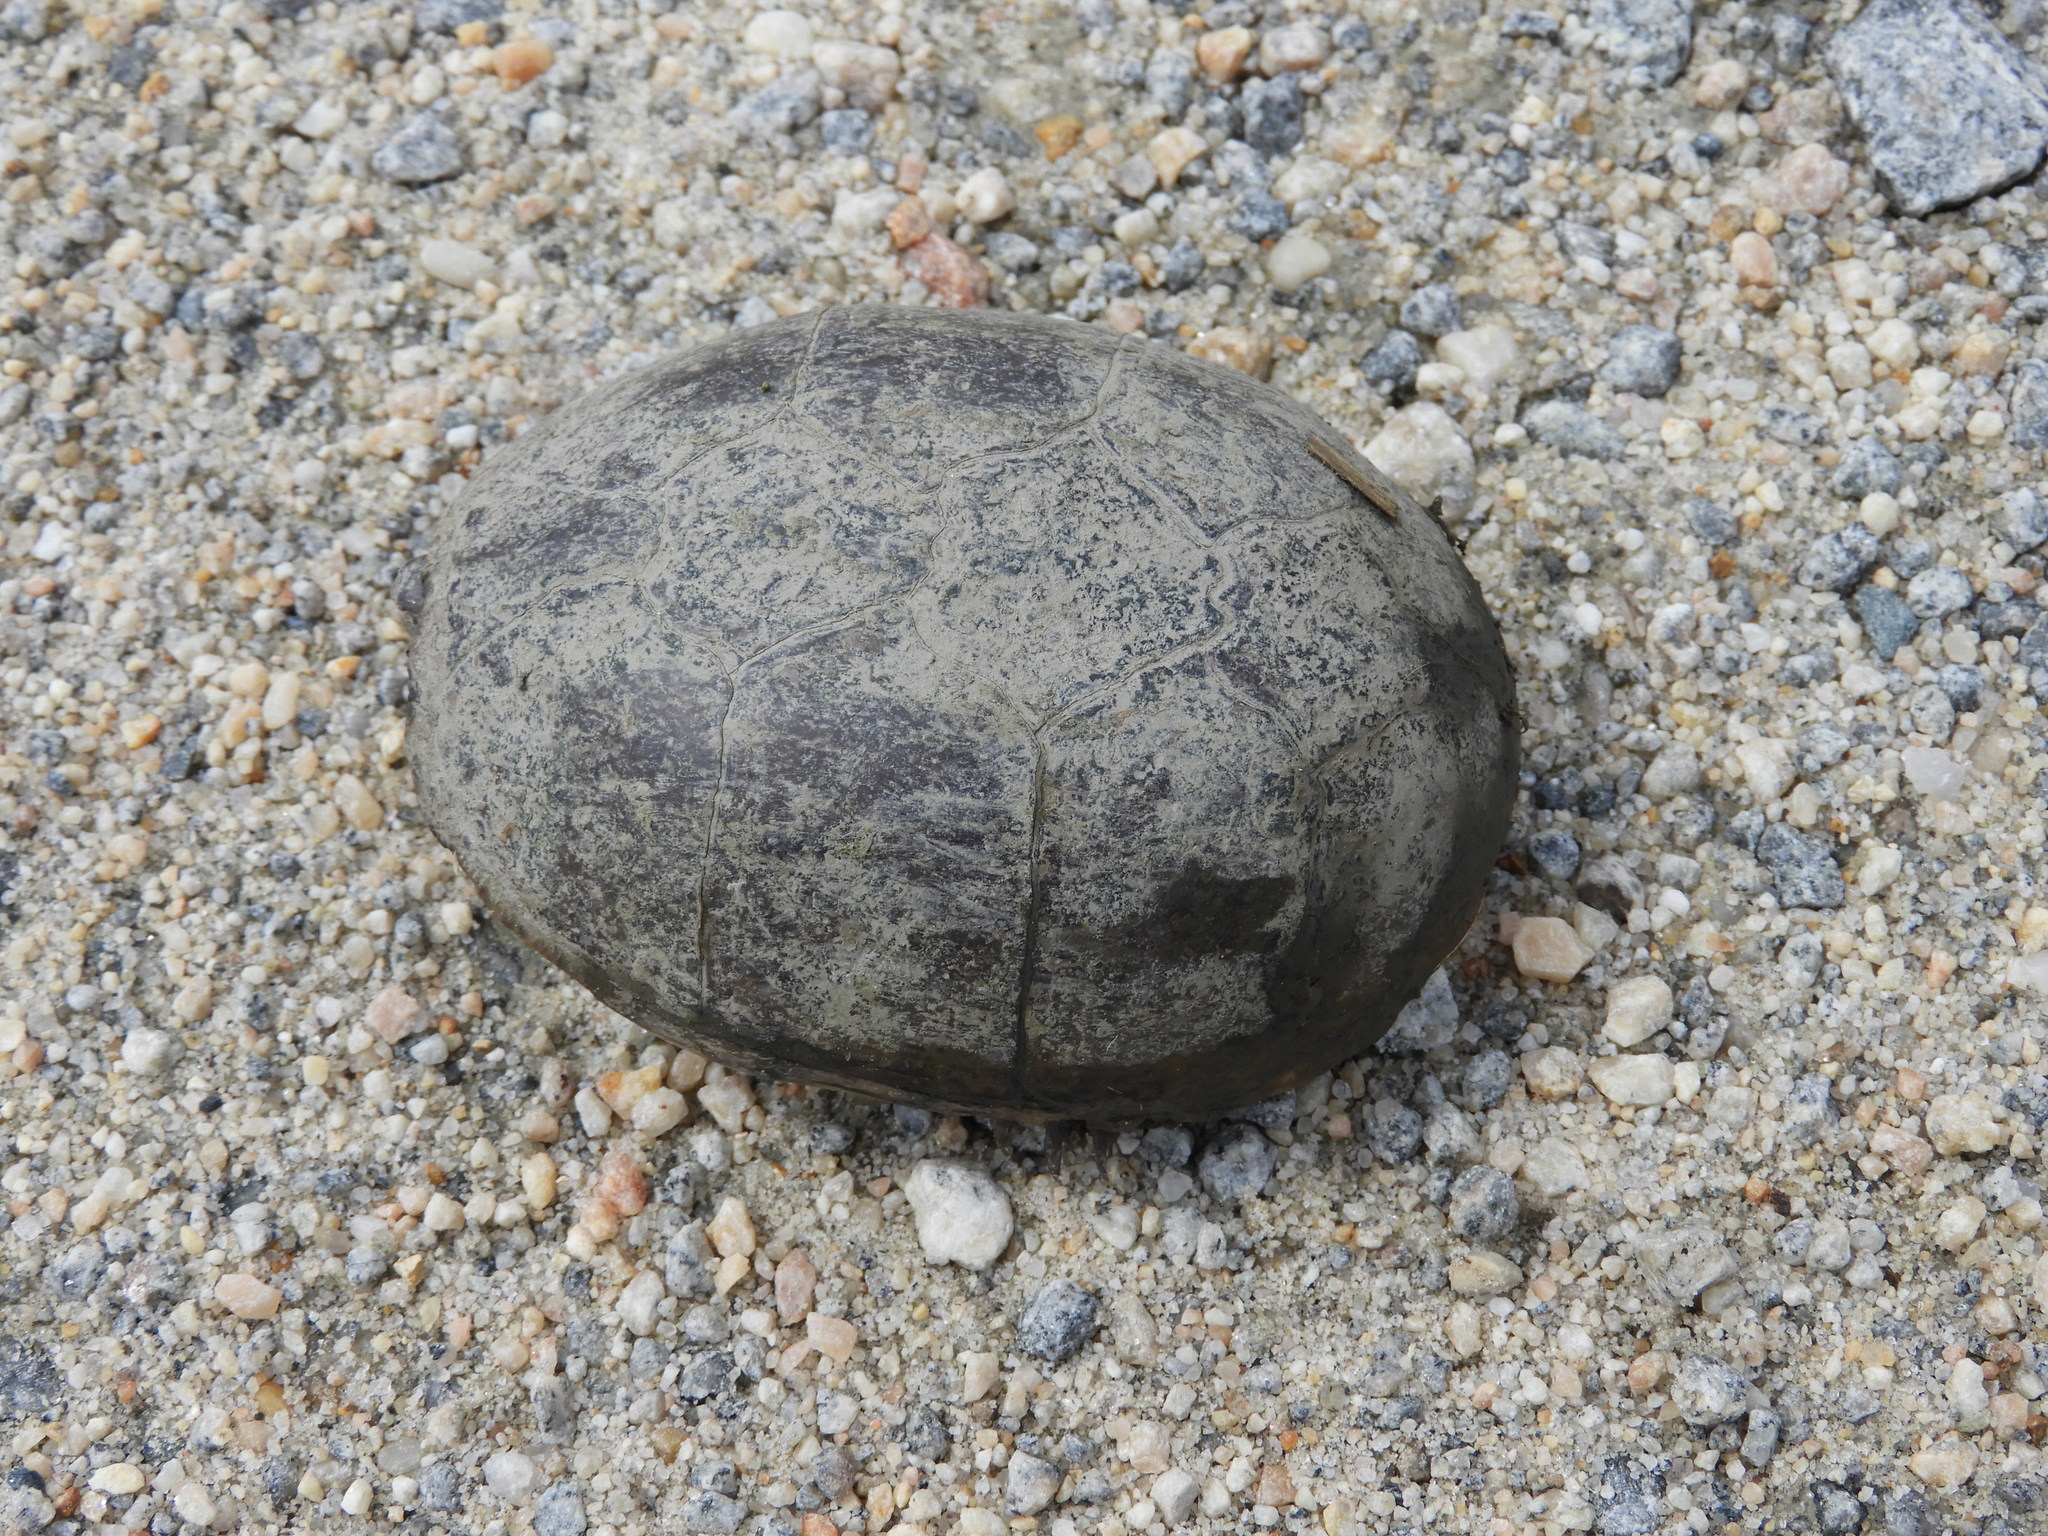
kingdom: Animalia
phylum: Chordata
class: Testudines
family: Kinosternidae
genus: Kinosternon
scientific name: Kinosternon subrubrum
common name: Eastern mud turtle
